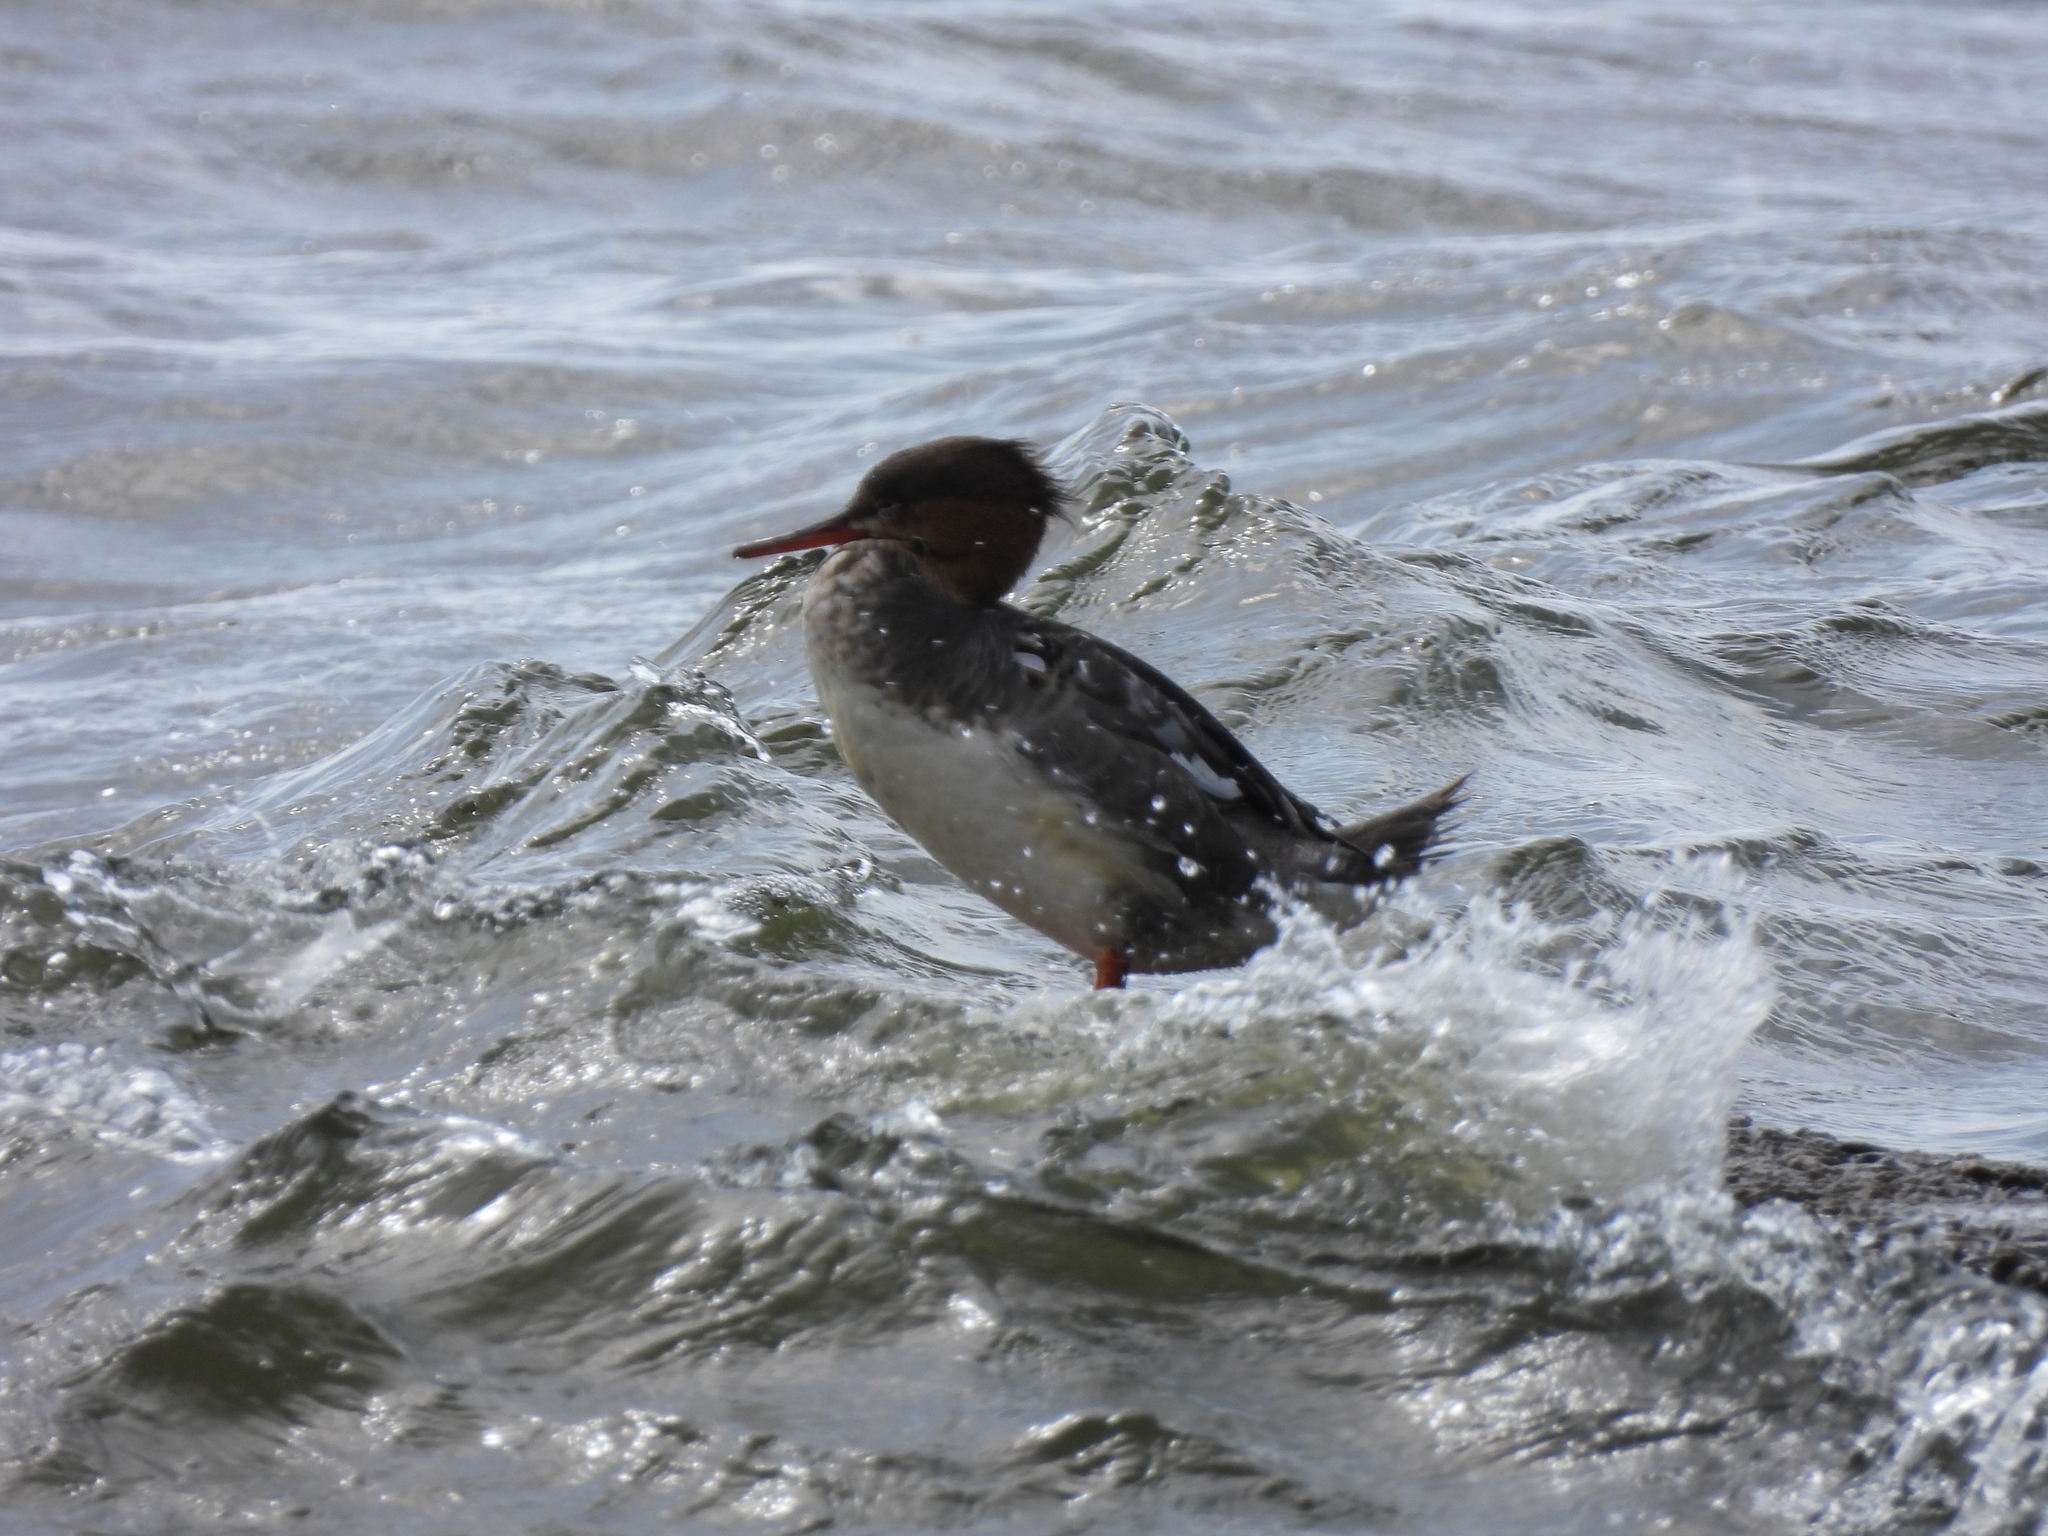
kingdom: Animalia
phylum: Chordata
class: Aves
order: Anseriformes
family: Anatidae
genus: Mergus
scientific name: Mergus serrator
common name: Red-breasted merganser
